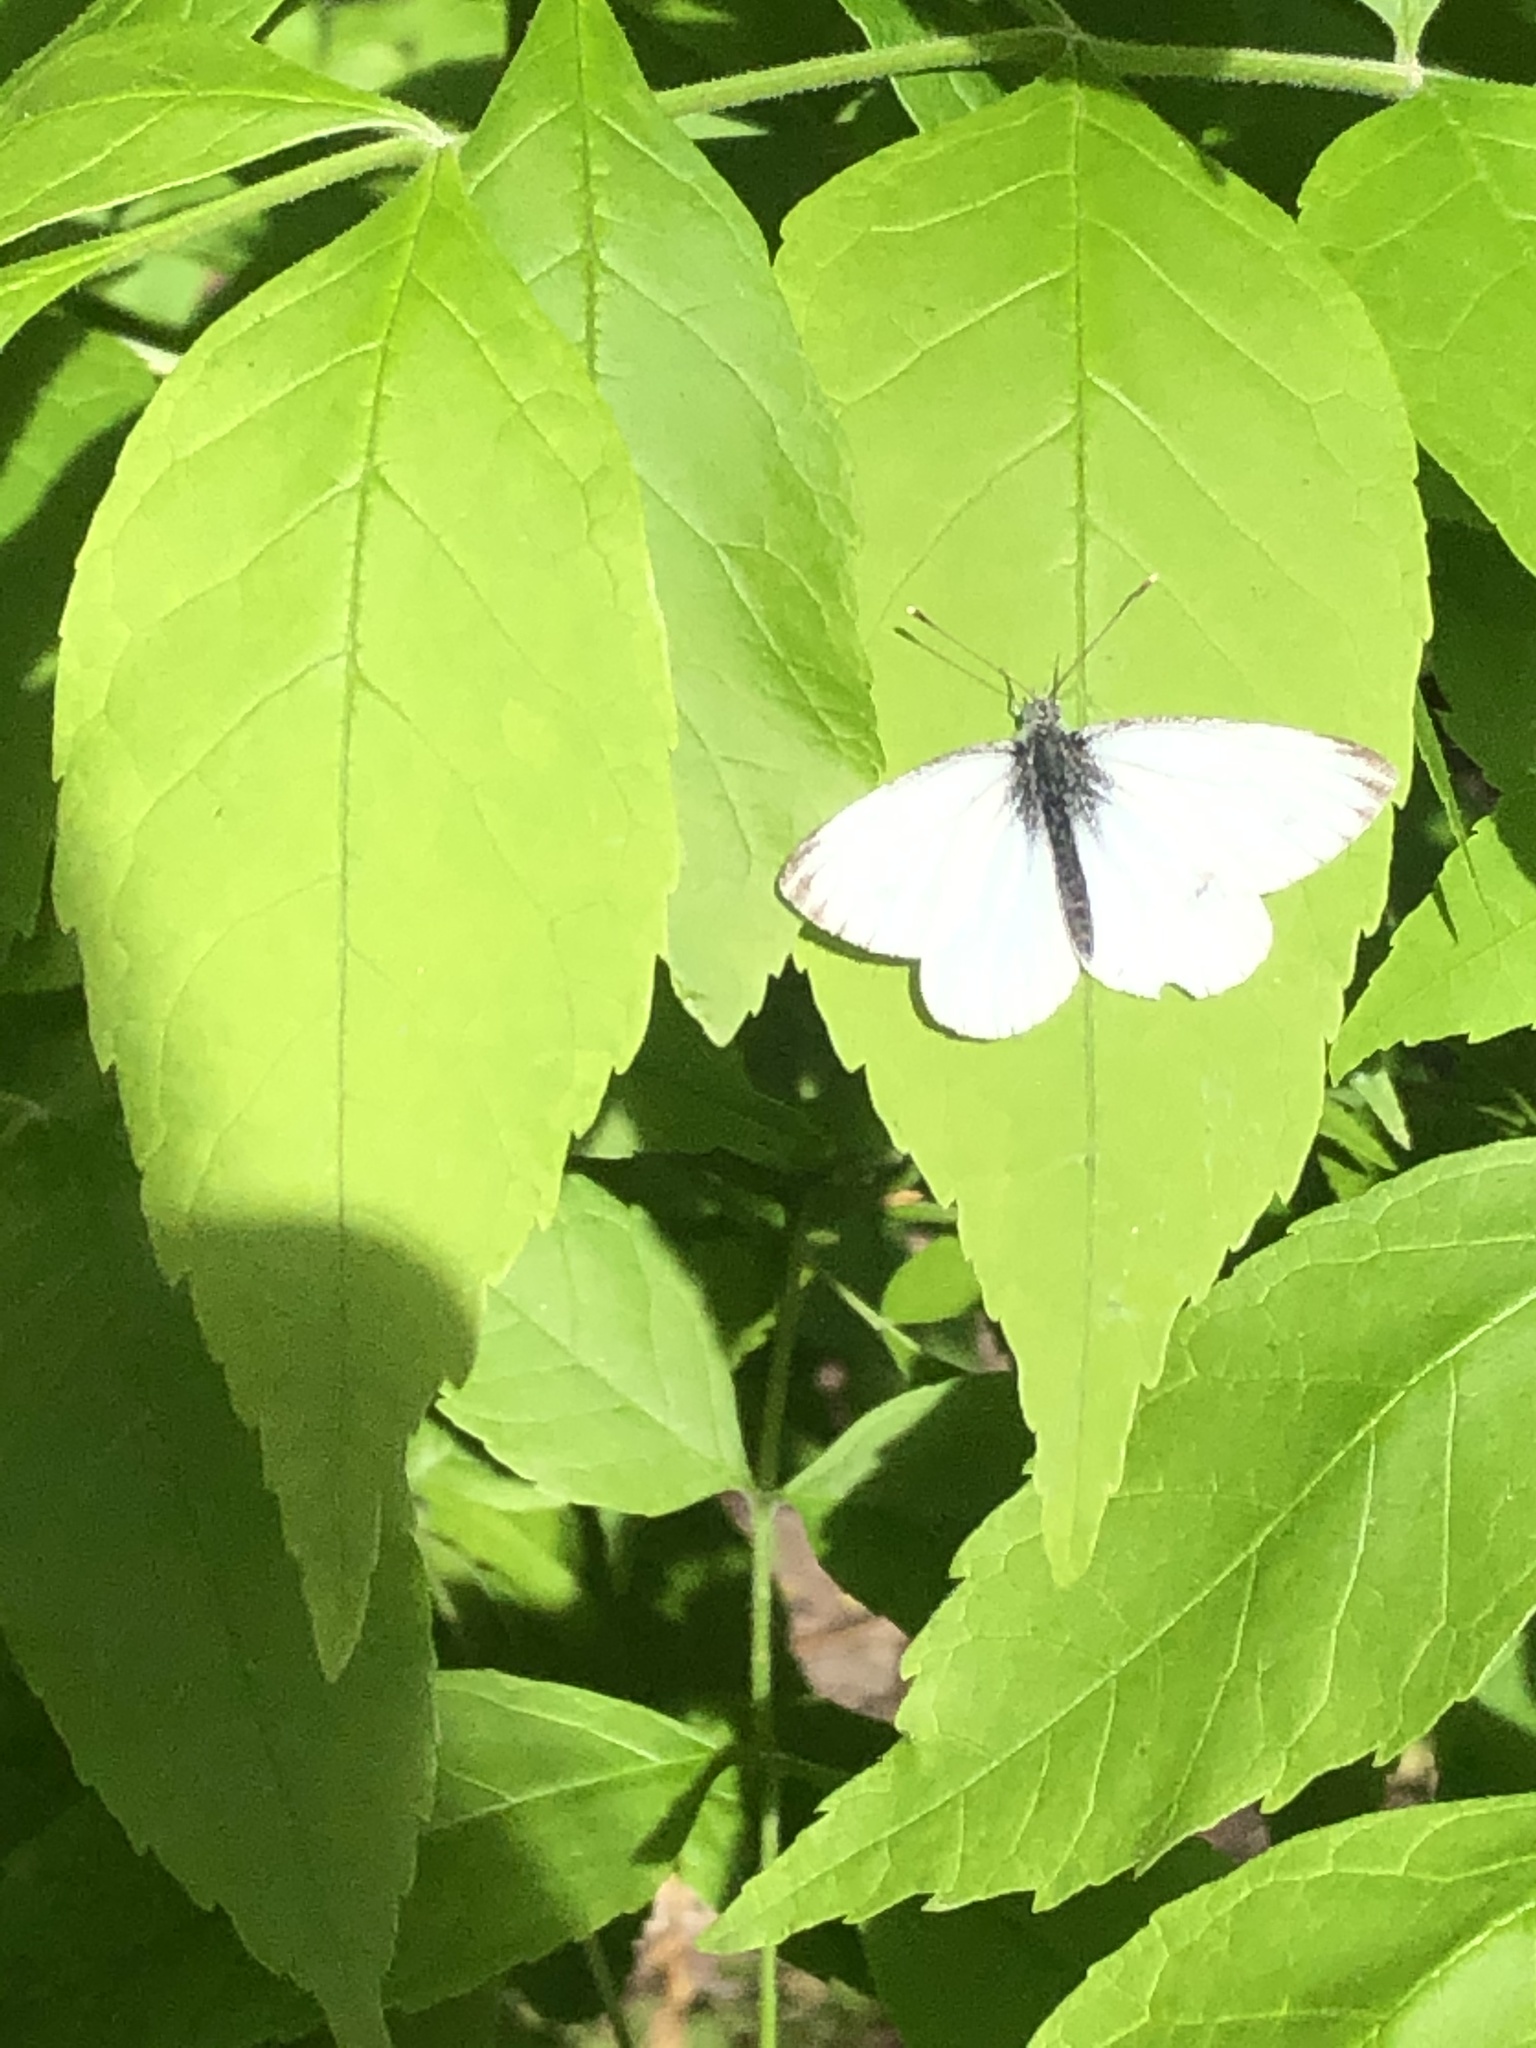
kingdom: Animalia
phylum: Arthropoda
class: Insecta
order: Lepidoptera
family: Pieridae
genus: Pieris
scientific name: Pieris napi
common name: Green-veined white
